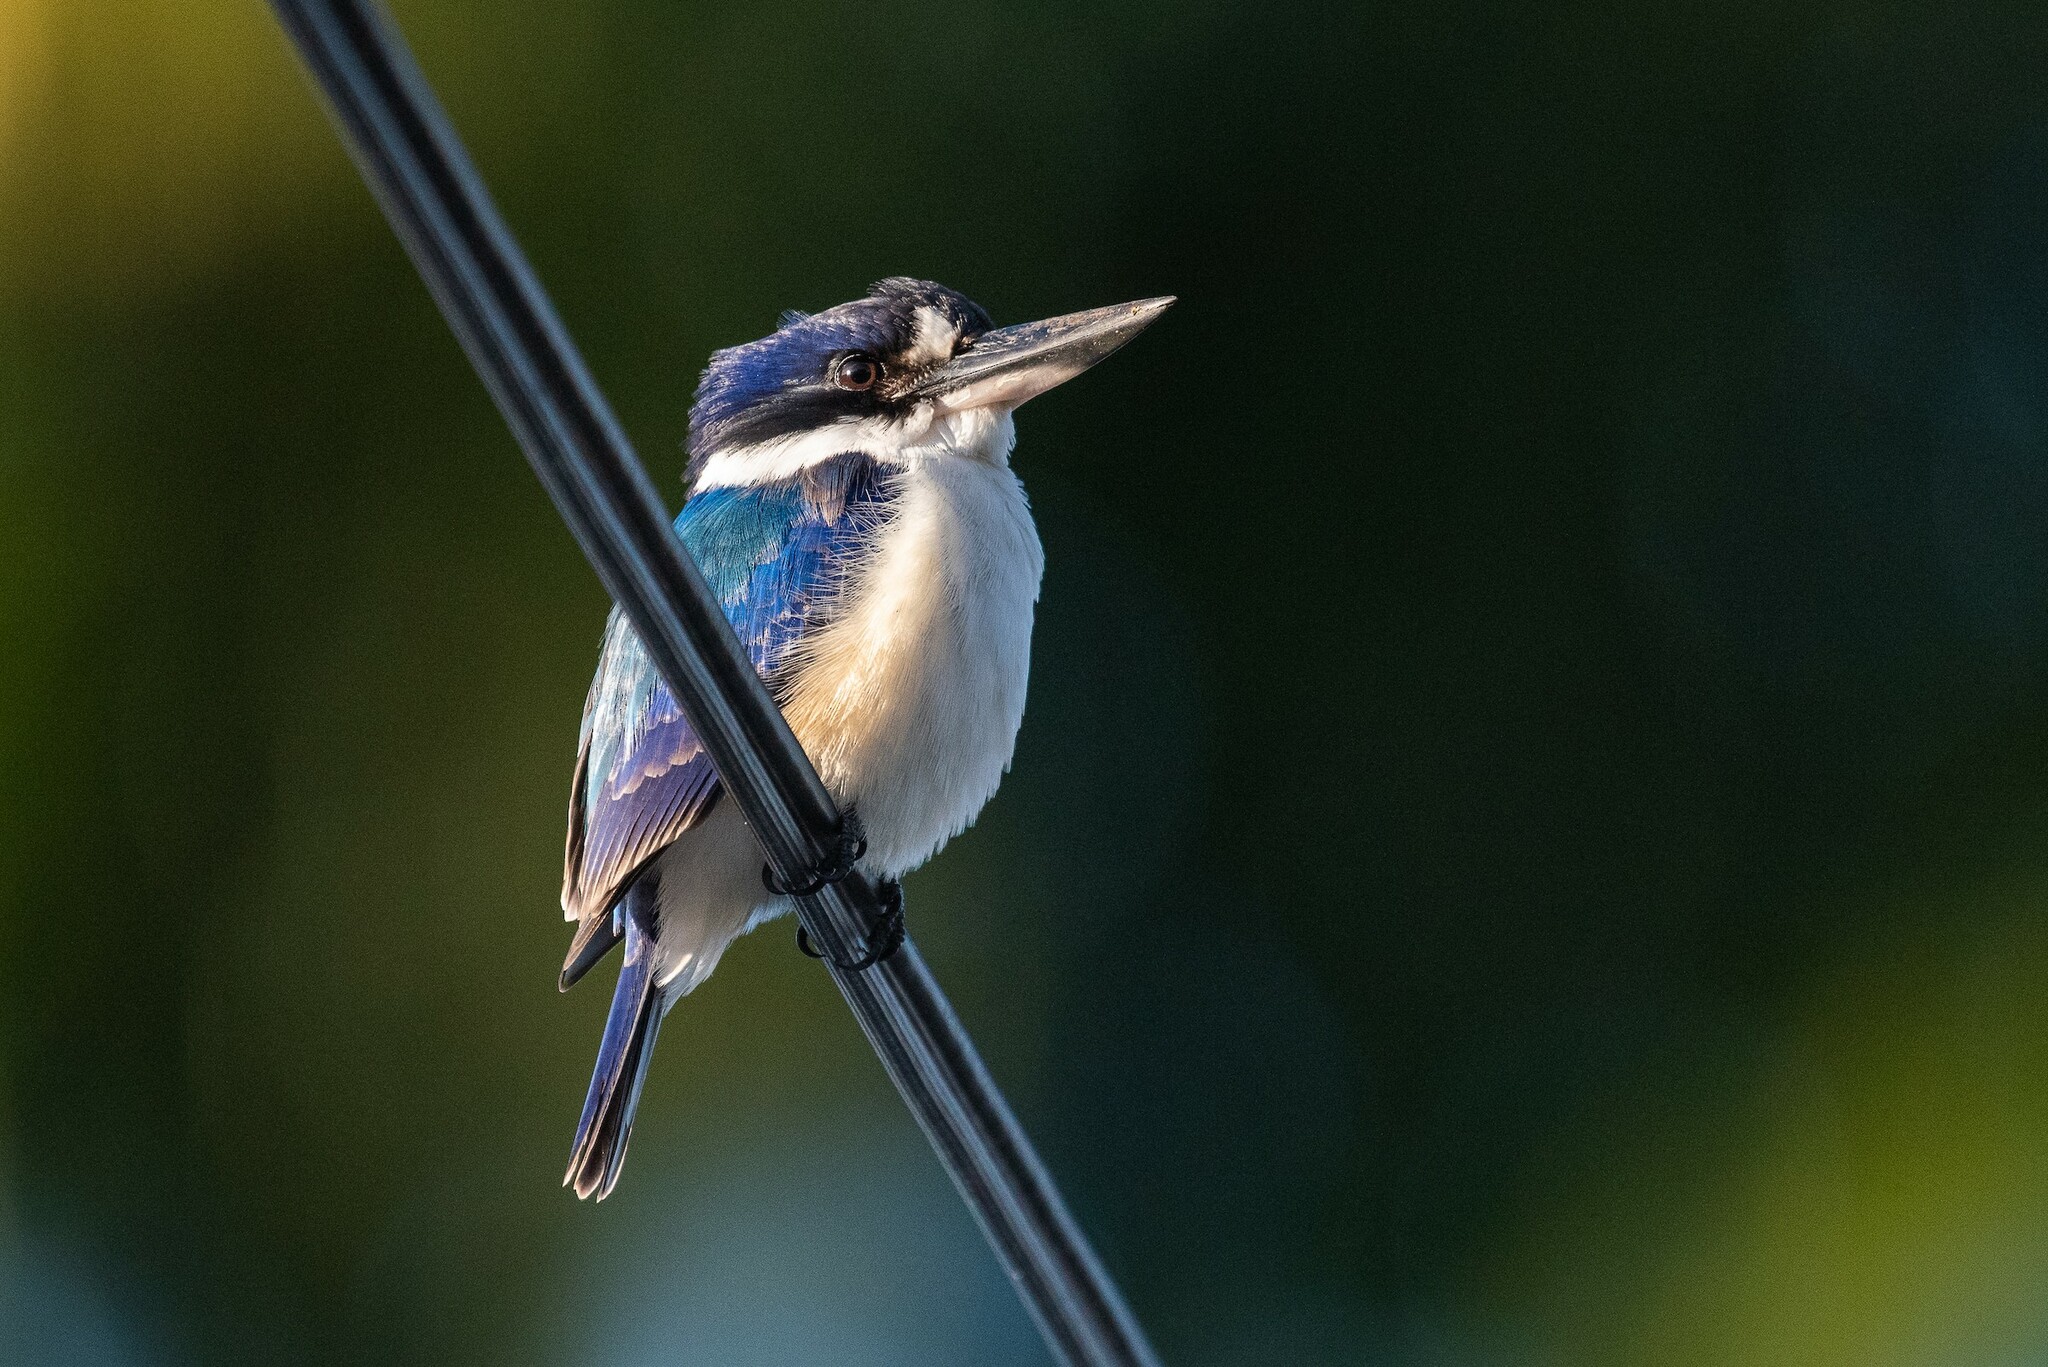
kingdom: Animalia
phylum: Chordata
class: Aves
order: Coraciiformes
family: Alcedinidae
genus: Todiramphus
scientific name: Todiramphus macleayii
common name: Forest kingfisher
